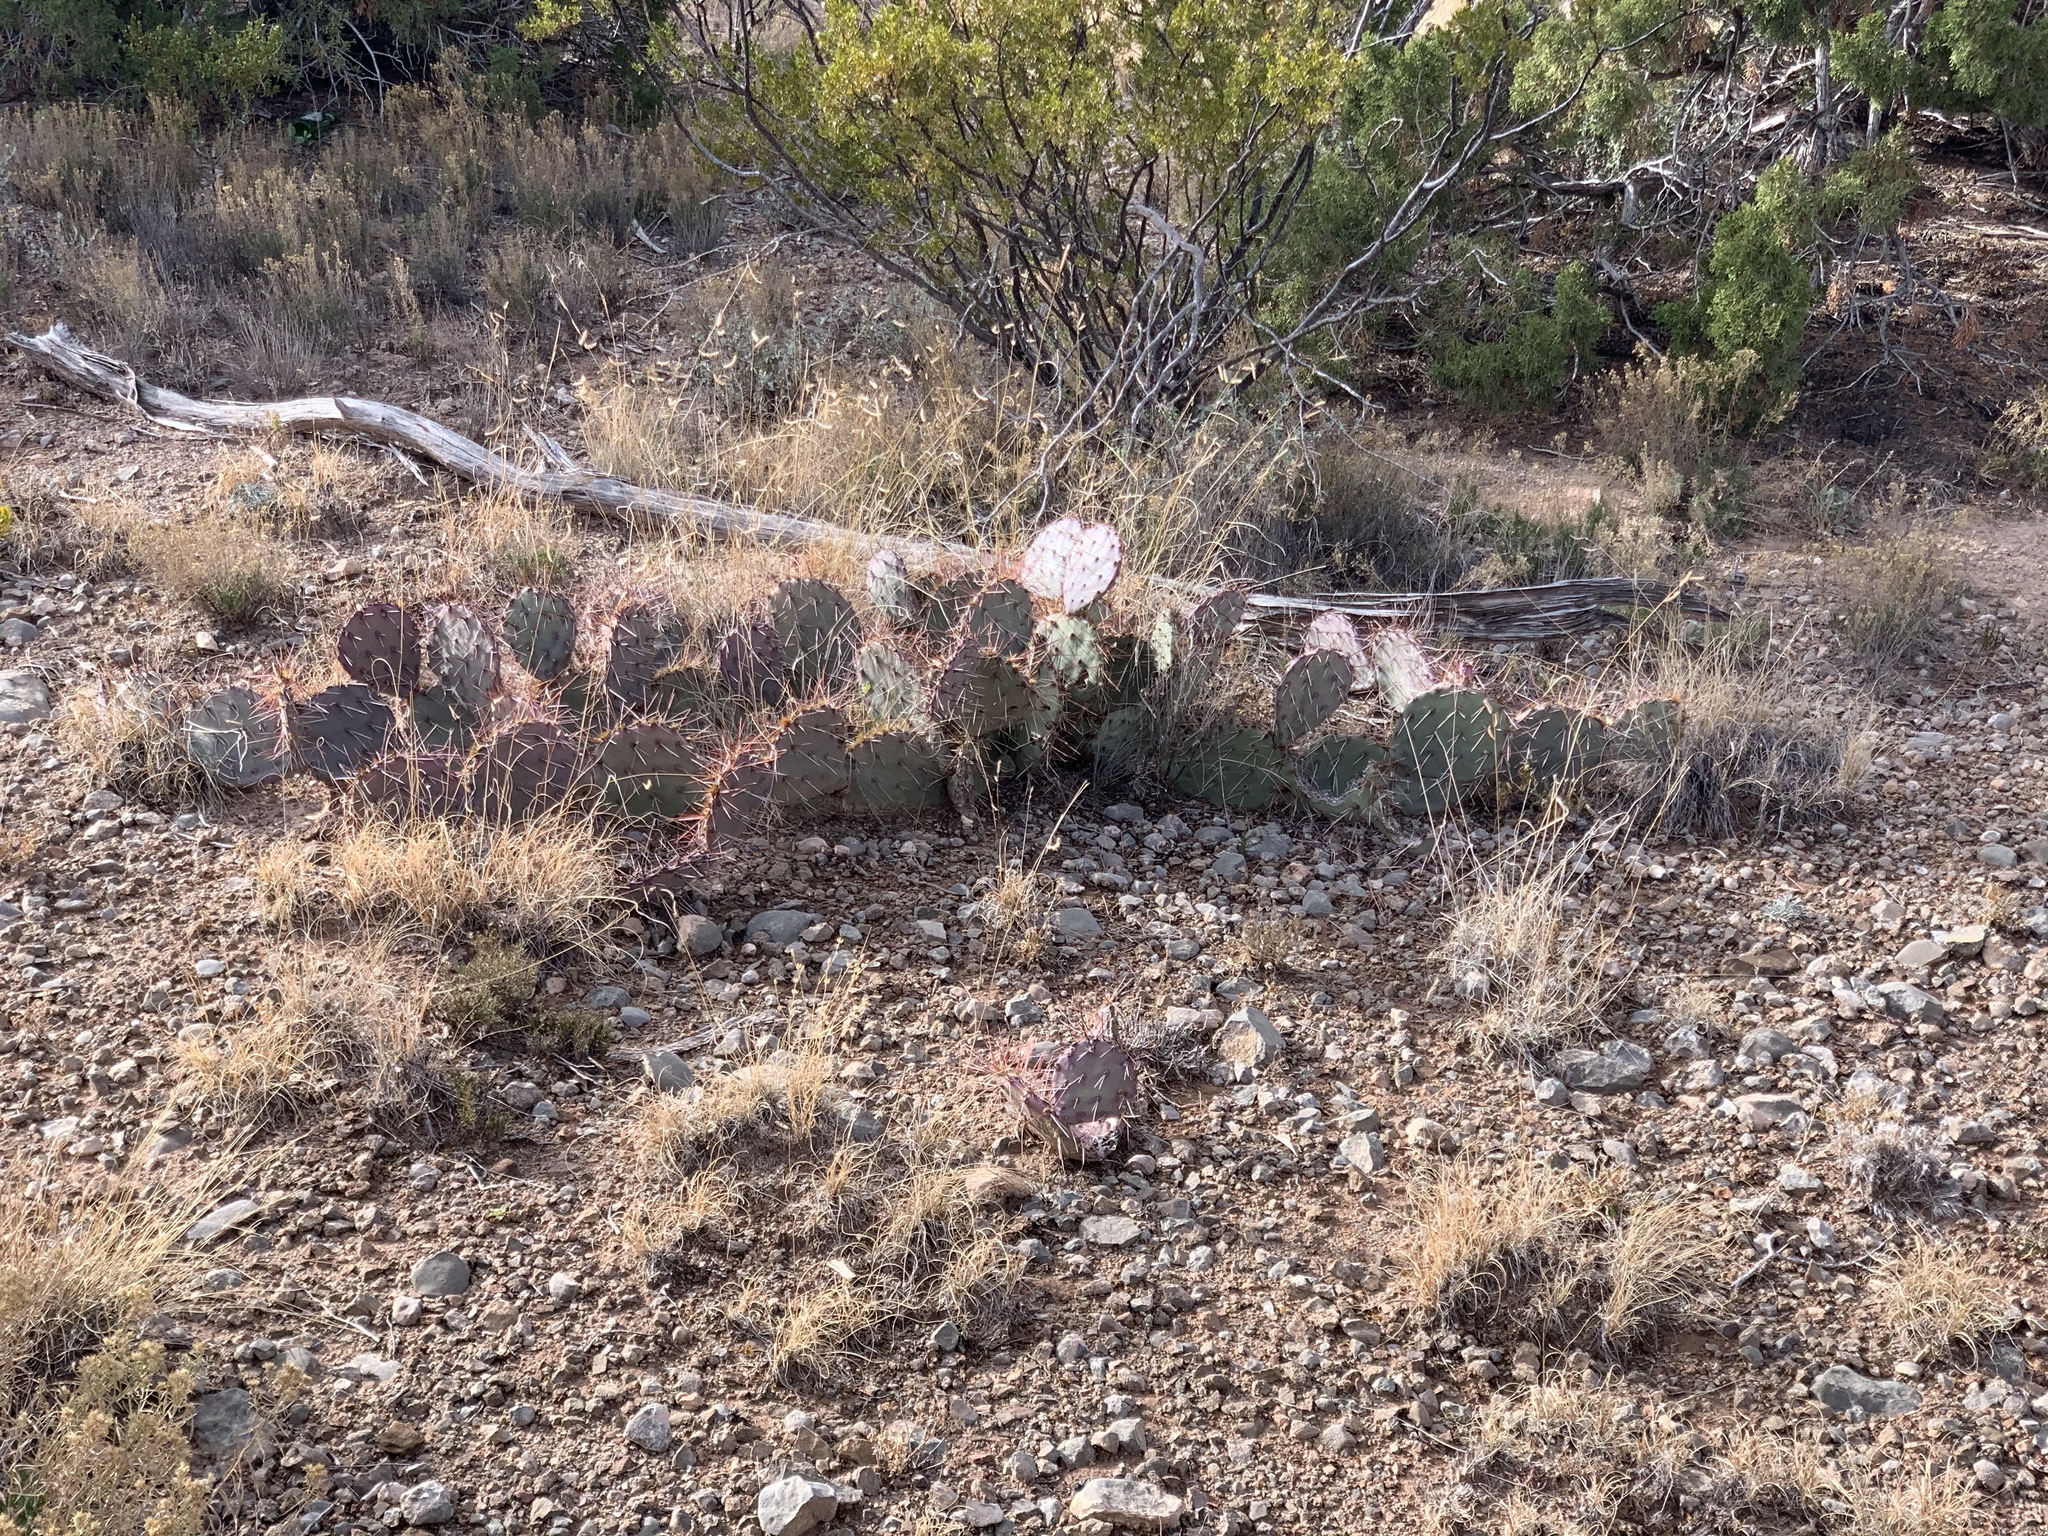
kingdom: Plantae
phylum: Tracheophyta
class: Magnoliopsida
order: Caryophyllales
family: Cactaceae
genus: Opuntia
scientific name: Opuntia macrocentra
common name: Purple prickly-pear
